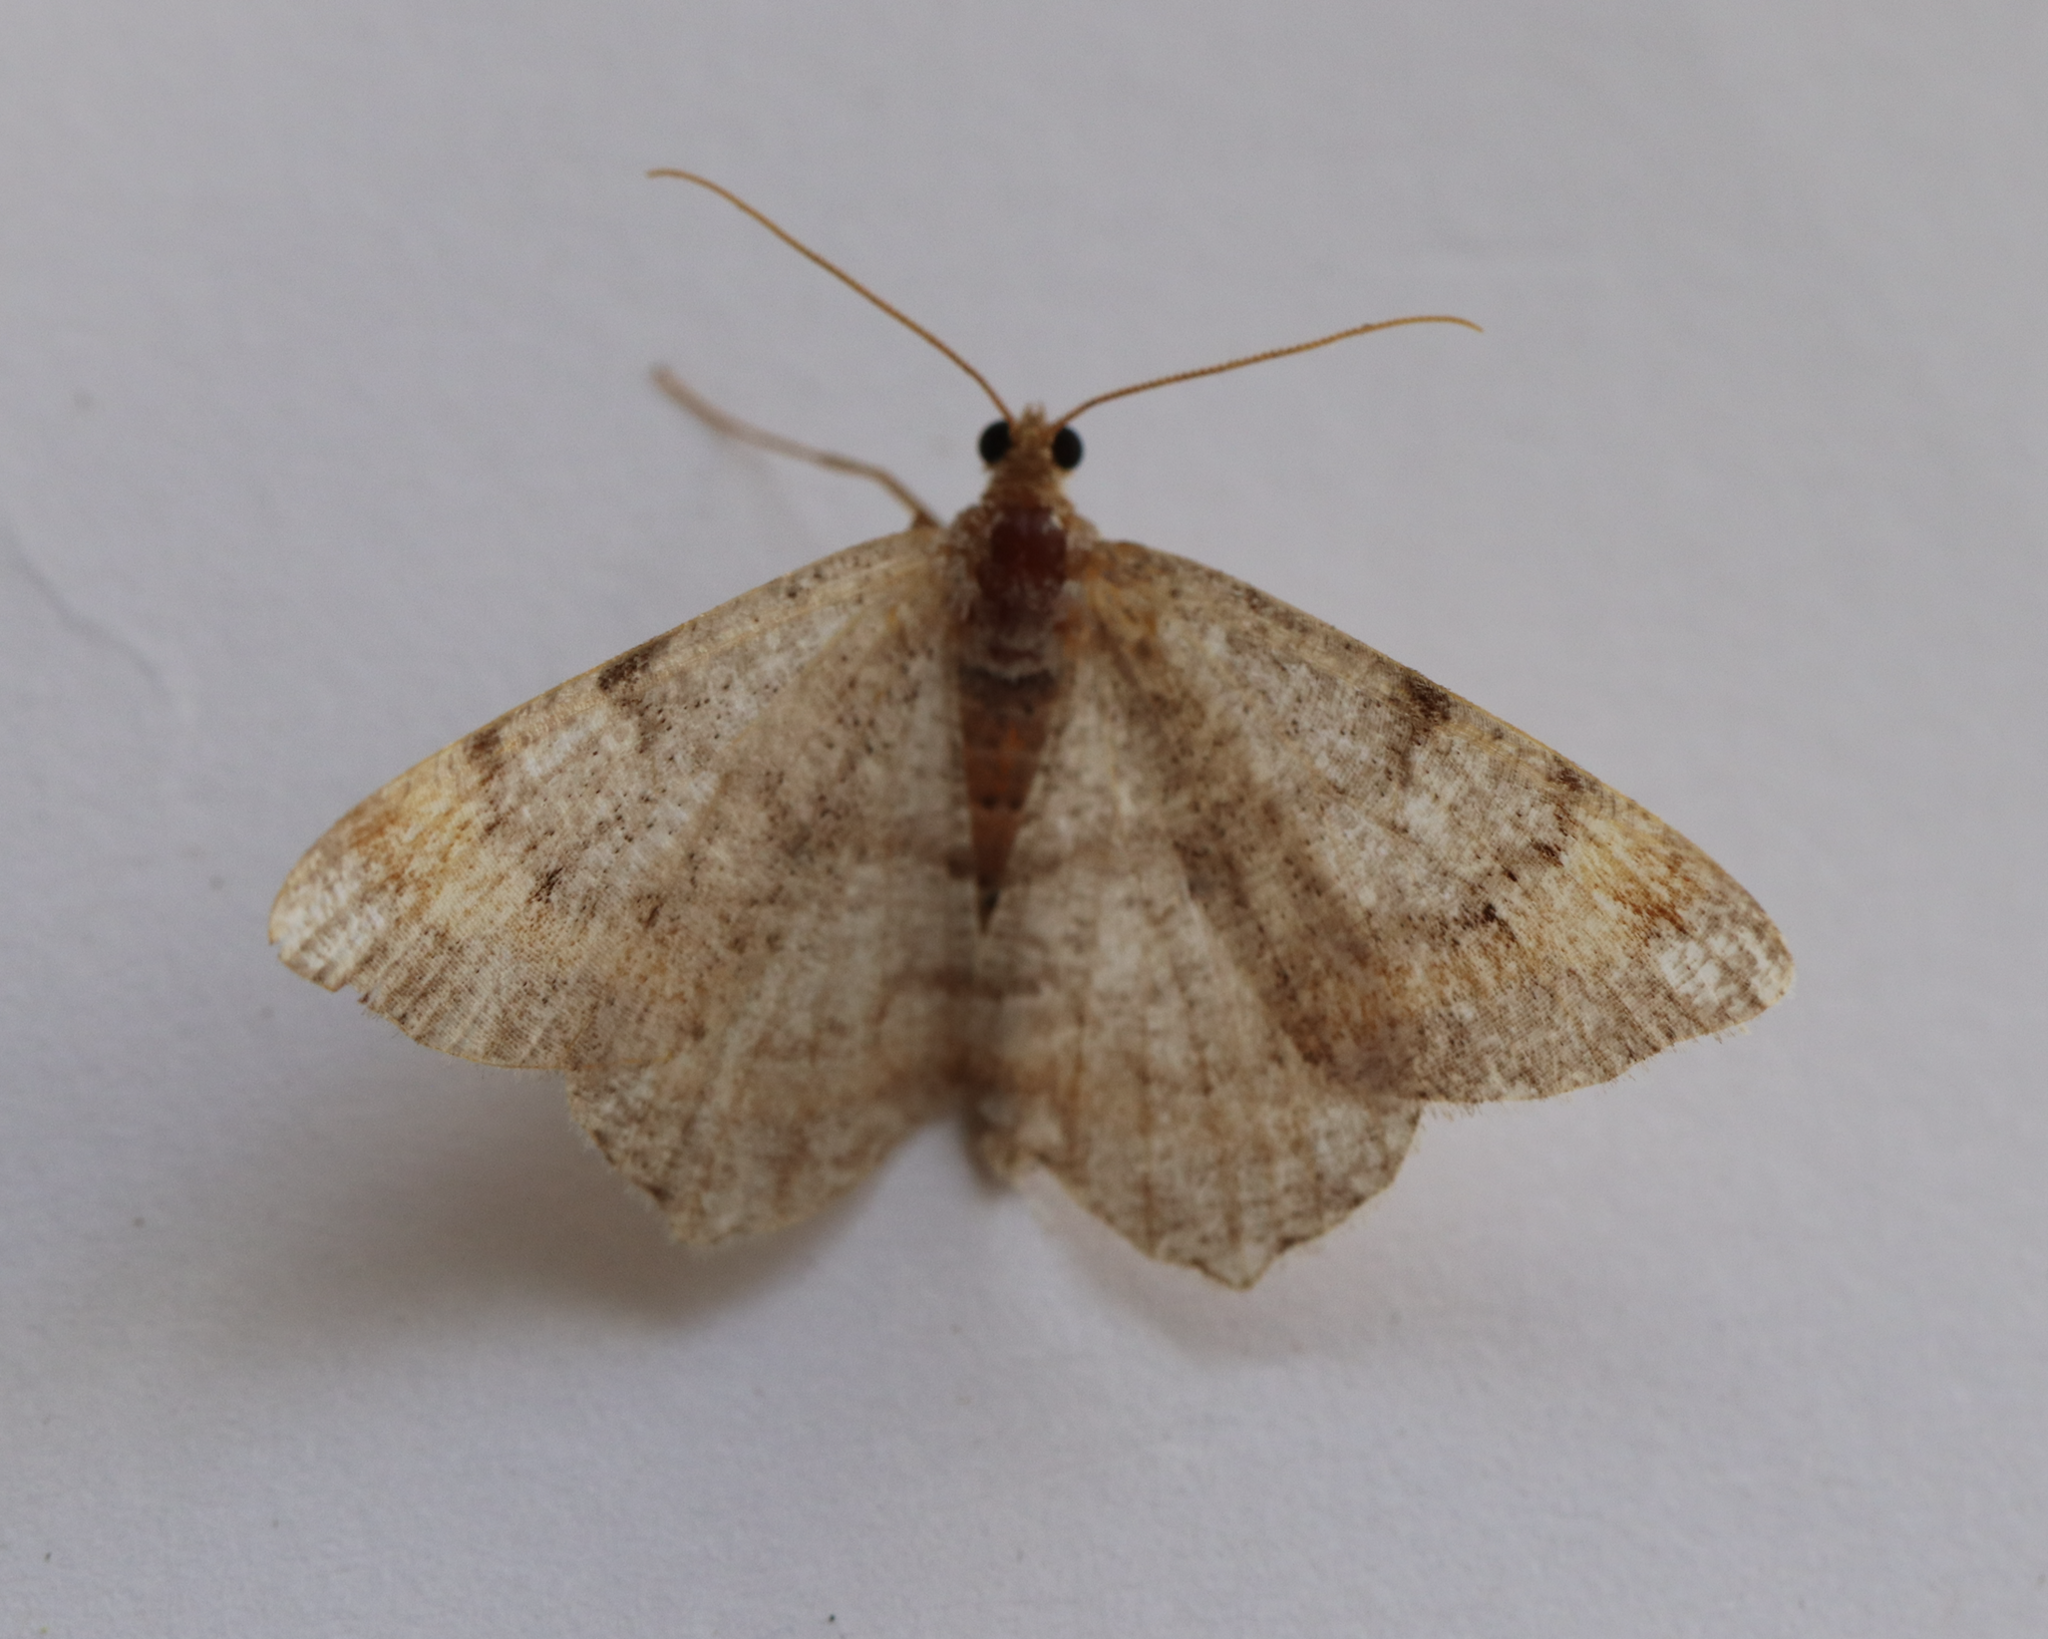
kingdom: Animalia
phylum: Arthropoda
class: Insecta
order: Lepidoptera
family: Geometridae
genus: Macaria
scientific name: Macaria liturata
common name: Tawny-barred angle
